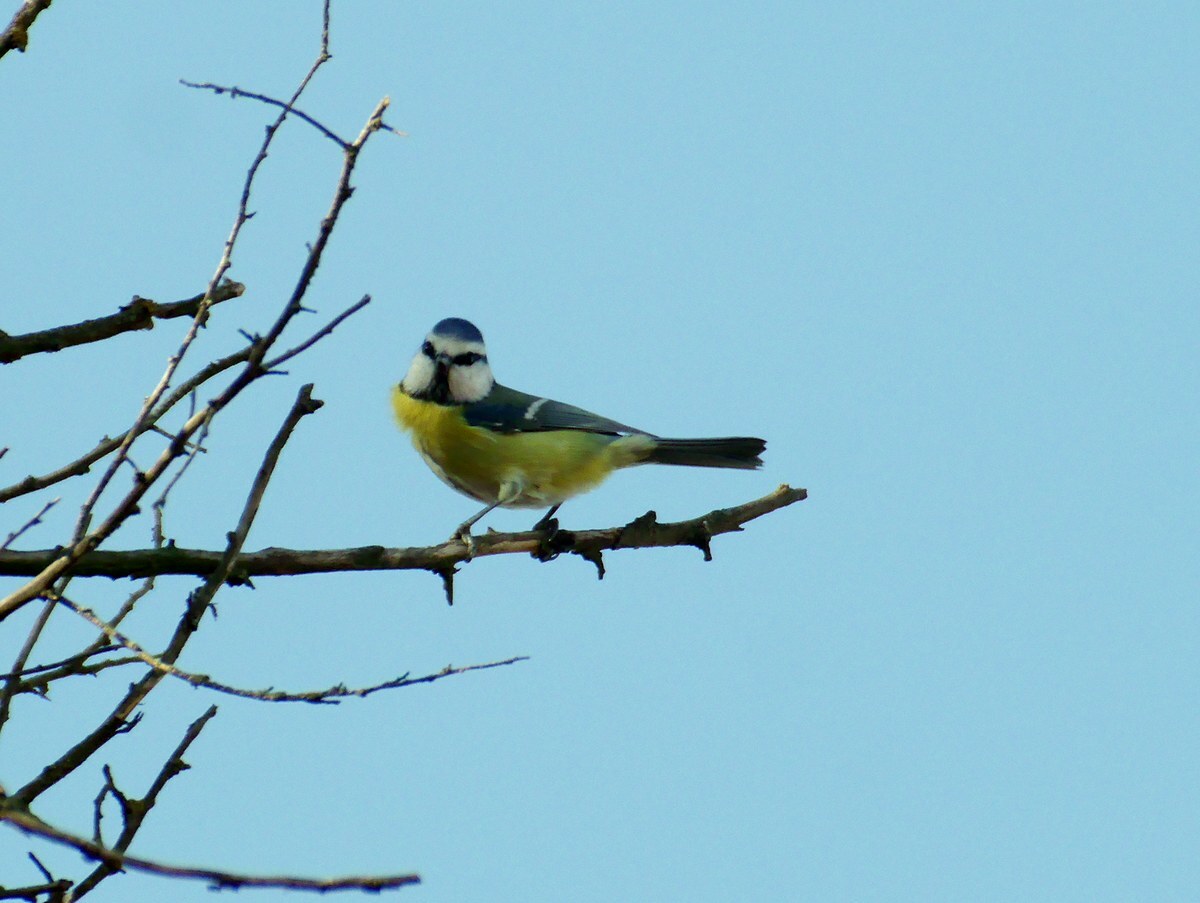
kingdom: Animalia
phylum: Chordata
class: Aves
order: Passeriformes
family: Paridae
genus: Cyanistes
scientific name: Cyanistes caeruleus
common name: Eurasian blue tit
